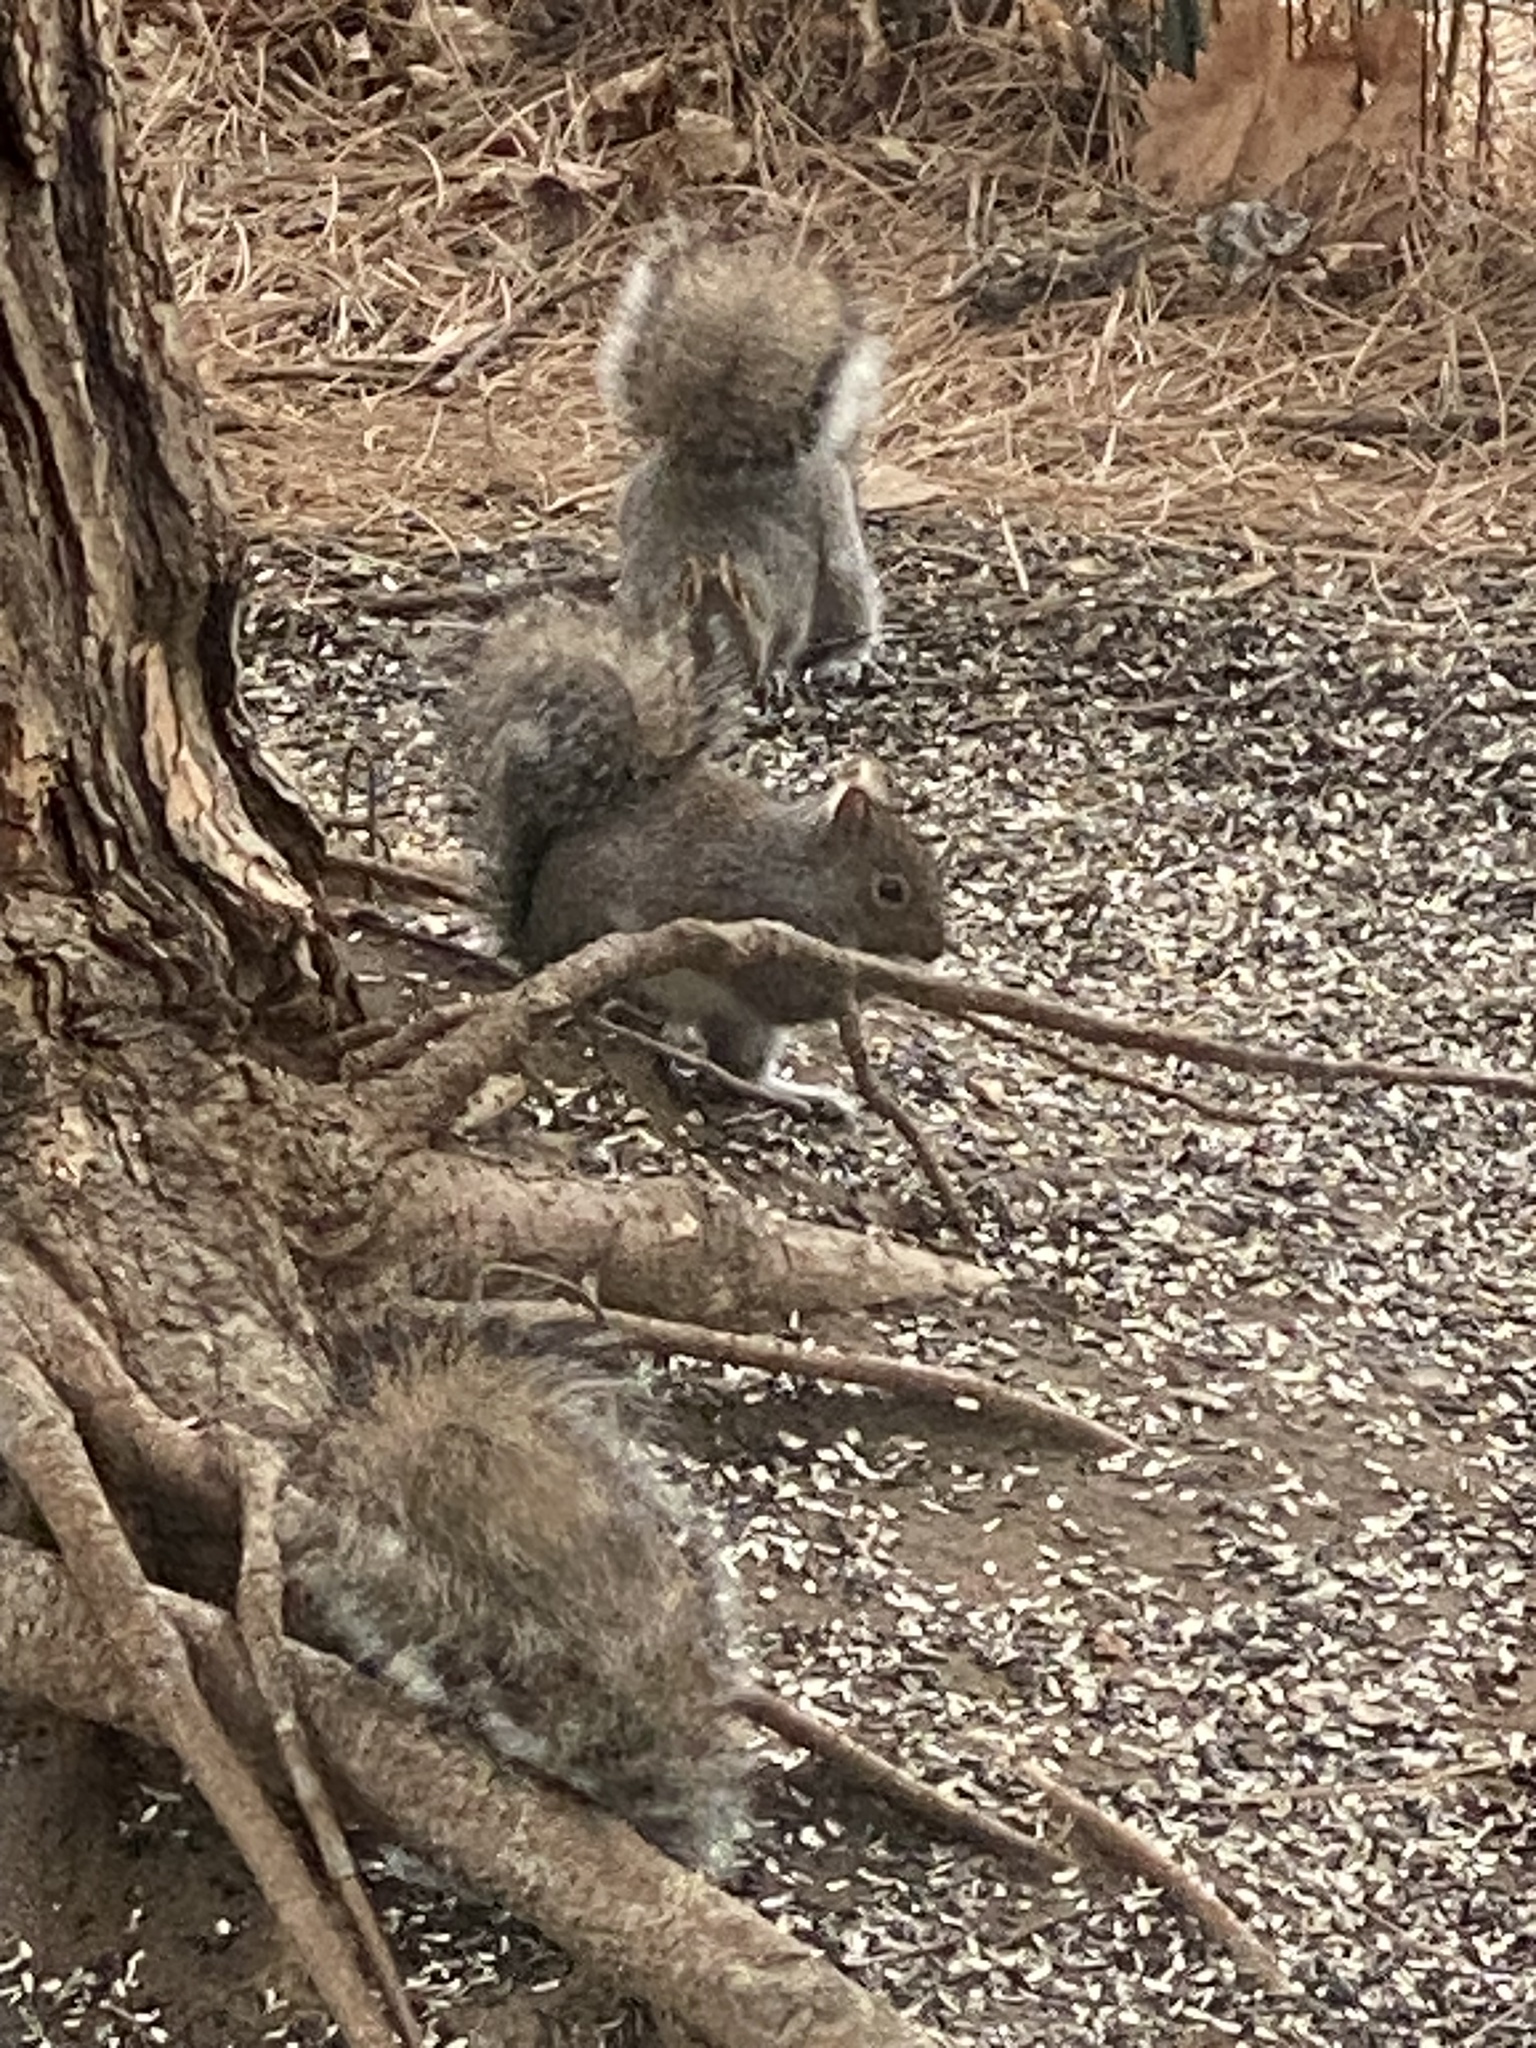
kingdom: Animalia
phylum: Chordata
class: Mammalia
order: Rodentia
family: Sciuridae
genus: Sciurus
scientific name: Sciurus carolinensis
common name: Eastern gray squirrel
